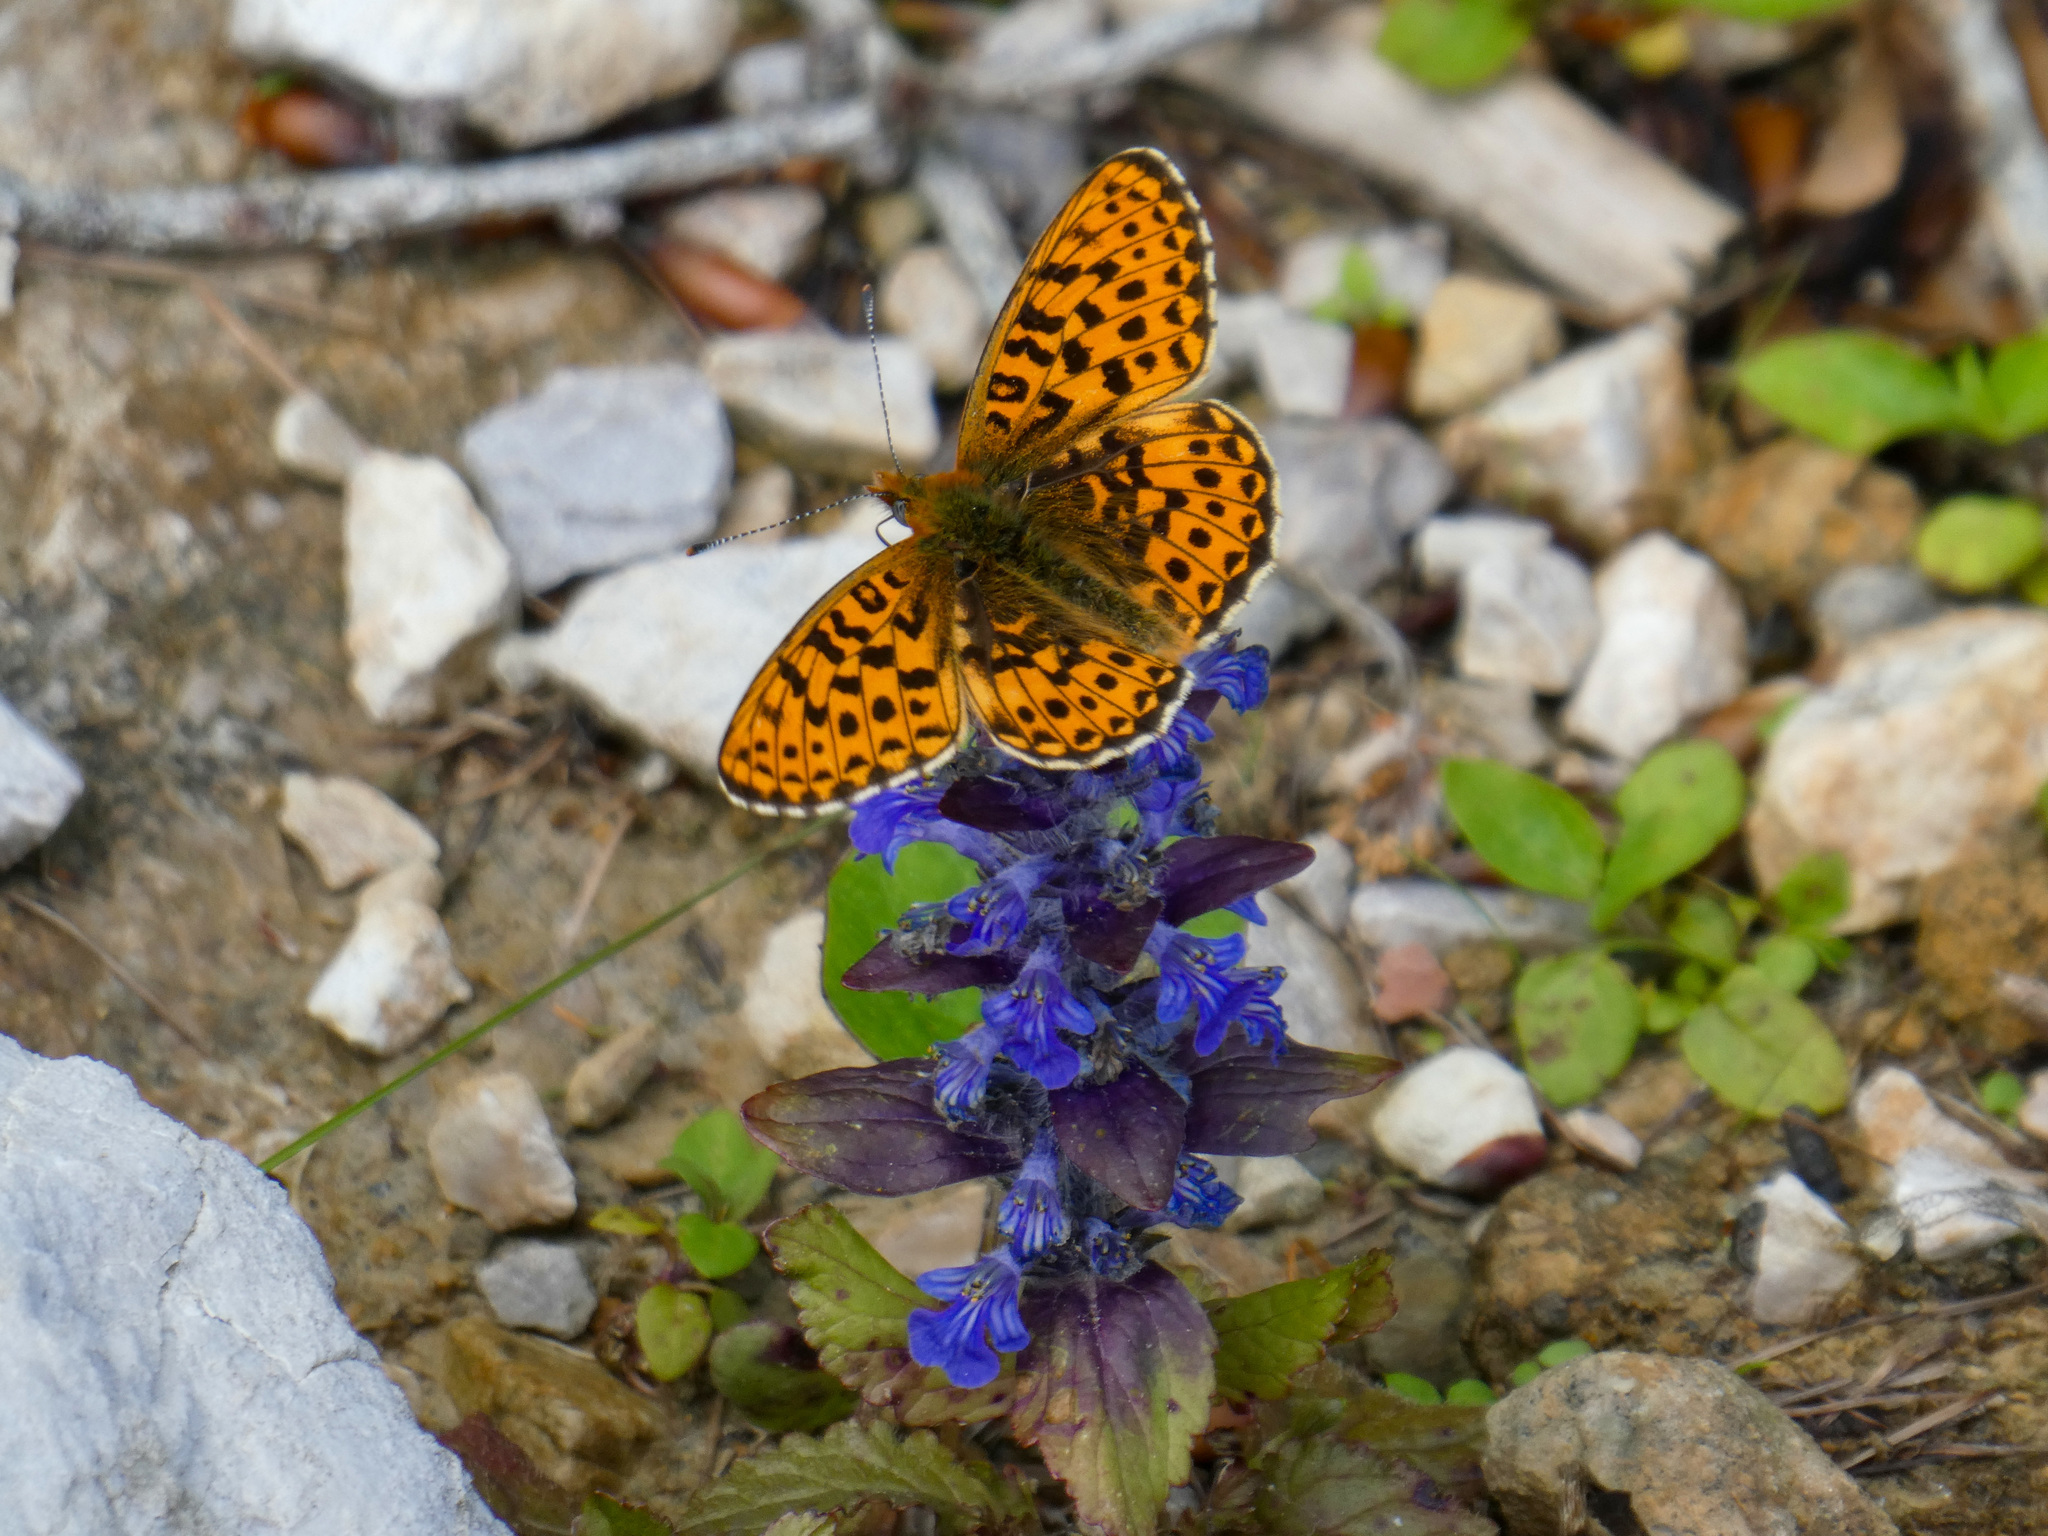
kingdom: Animalia
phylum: Arthropoda
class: Insecta
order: Lepidoptera
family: Nymphalidae
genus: Clossiana
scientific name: Clossiana euphrosyne
